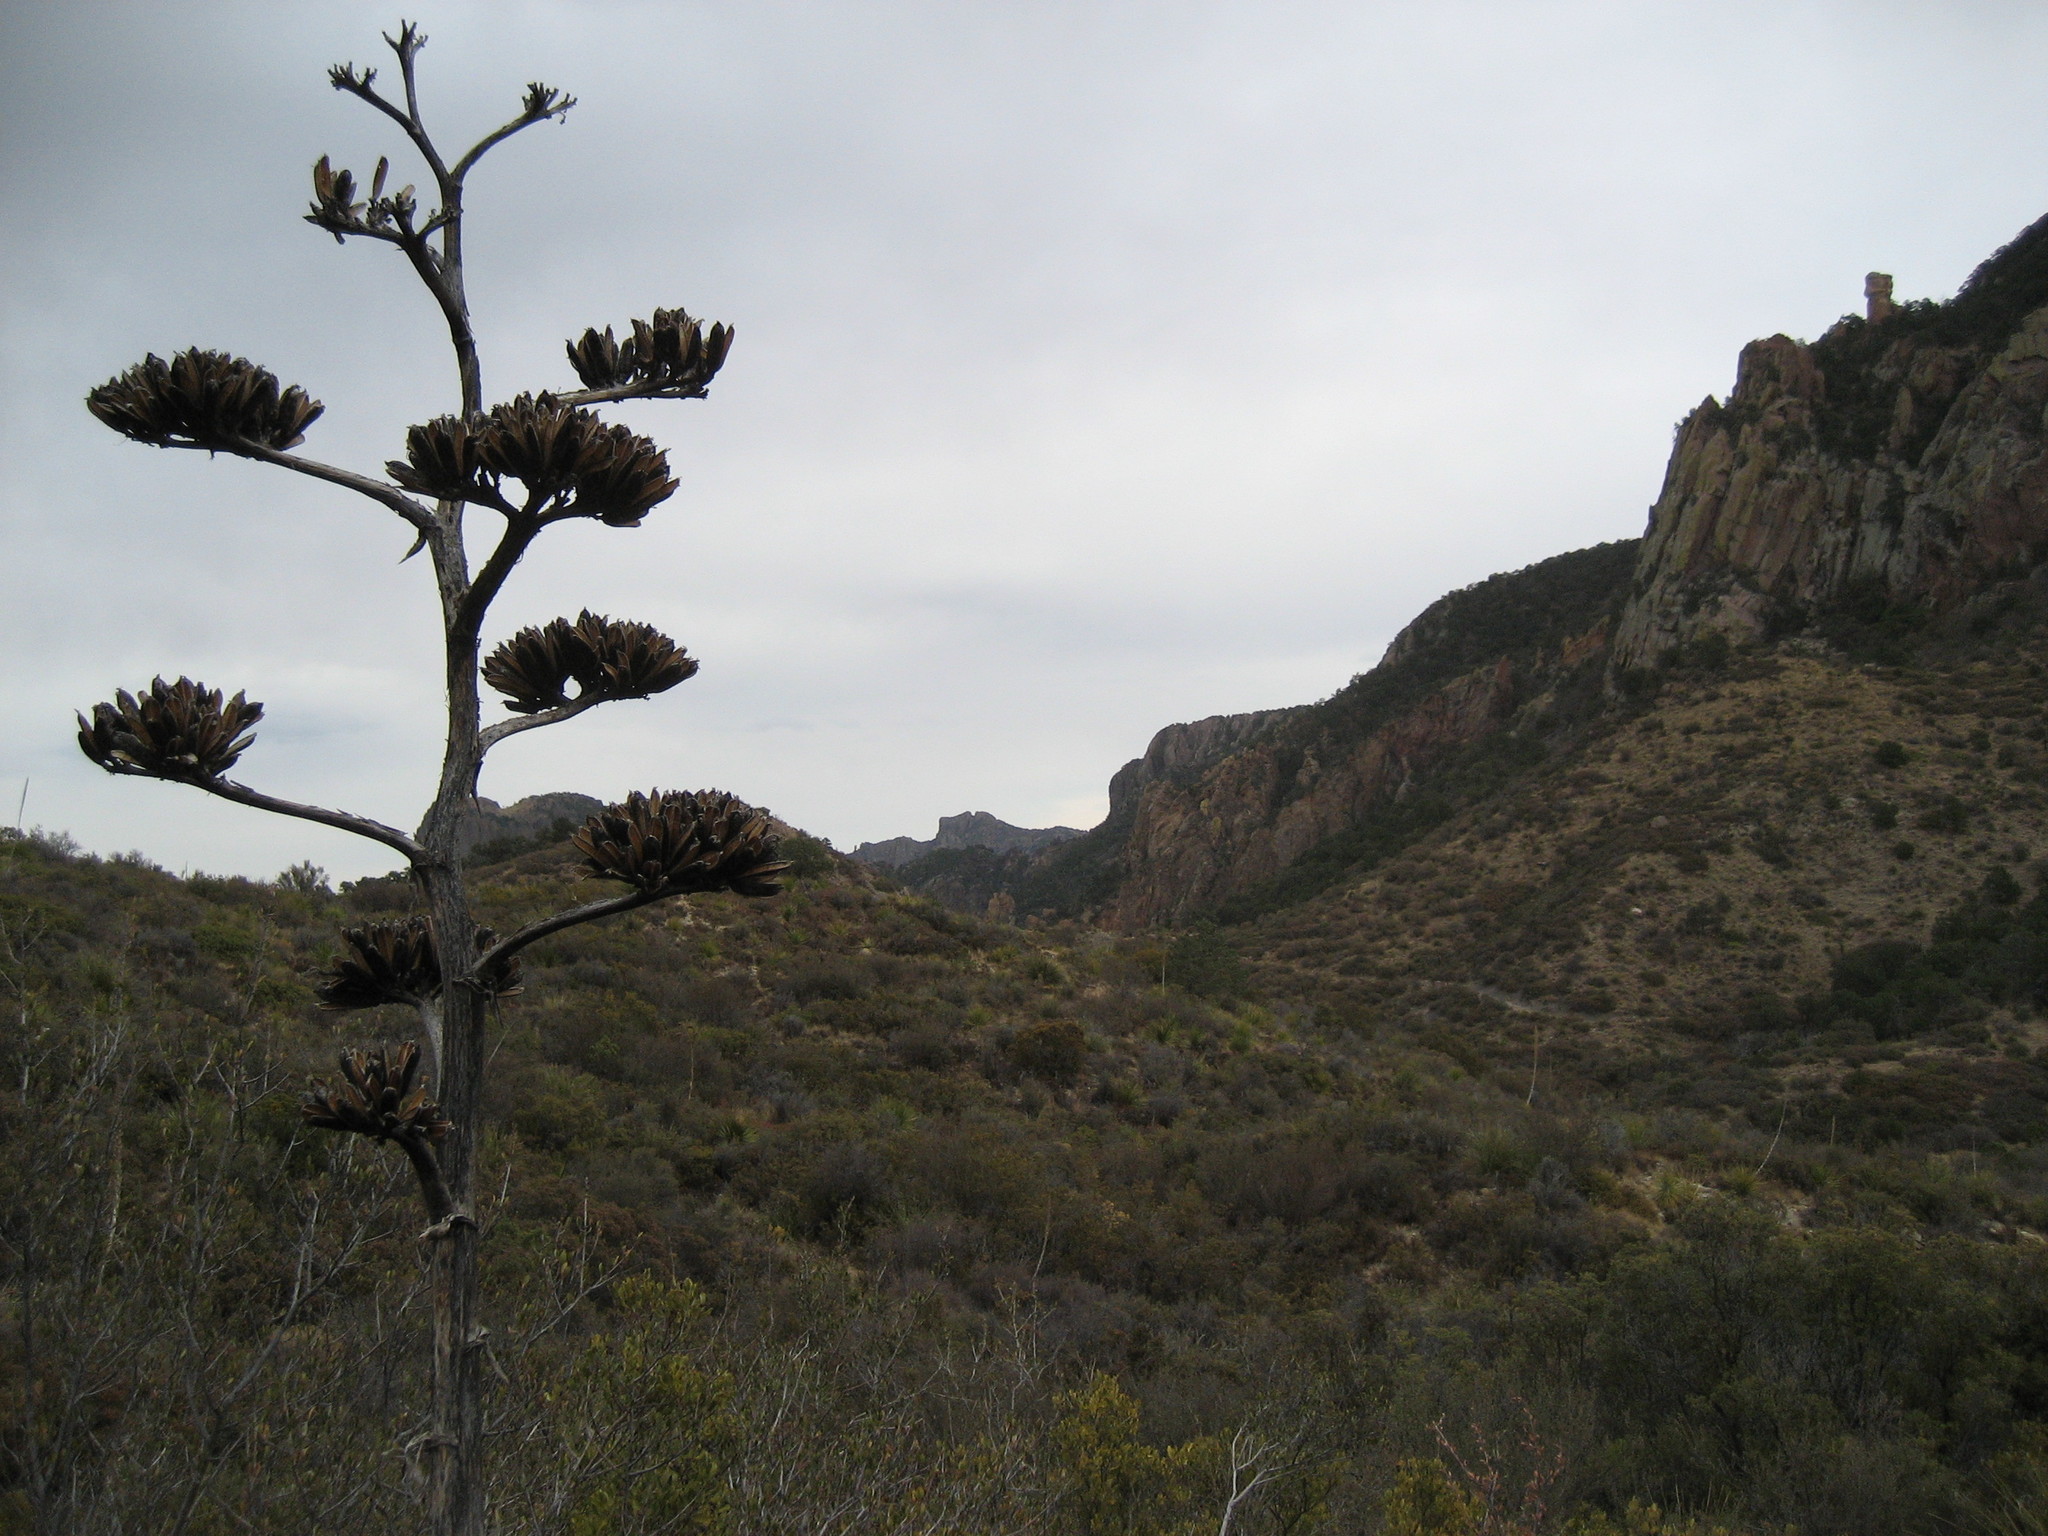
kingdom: Plantae
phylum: Tracheophyta
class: Liliopsida
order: Asparagales
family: Asparagaceae
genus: Agave
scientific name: Agave havardiana
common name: Havard agave
